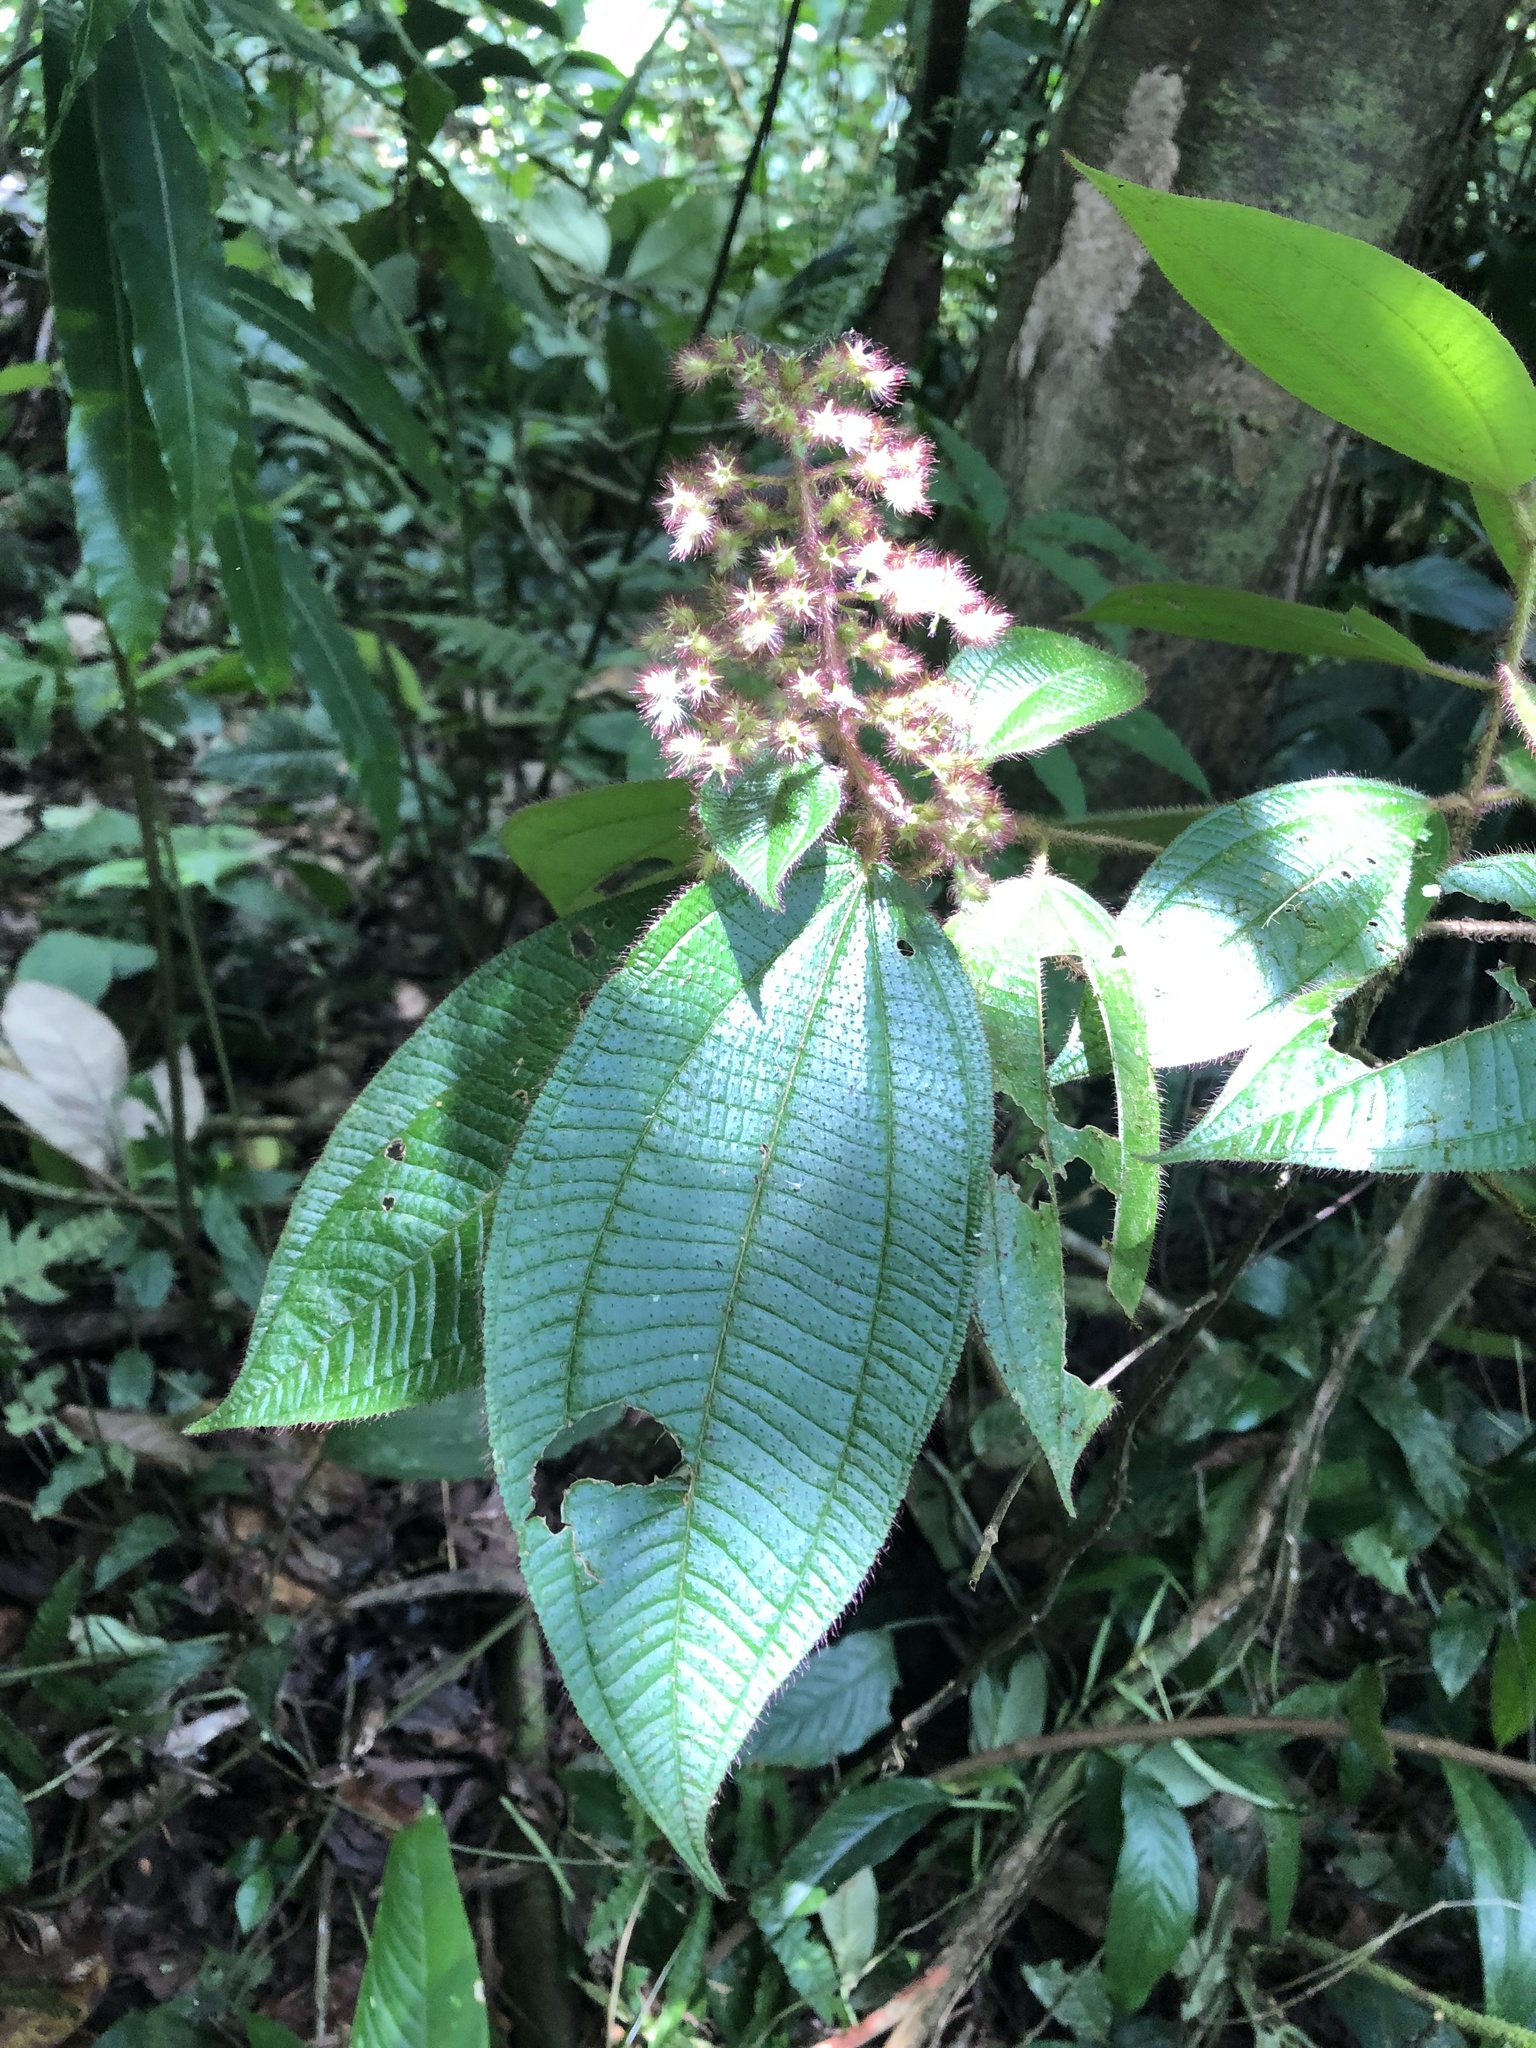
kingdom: Plantae
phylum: Tracheophyta
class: Magnoliopsida
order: Myrtales
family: Melastomataceae
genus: Miconia
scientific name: Miconia longicoma
